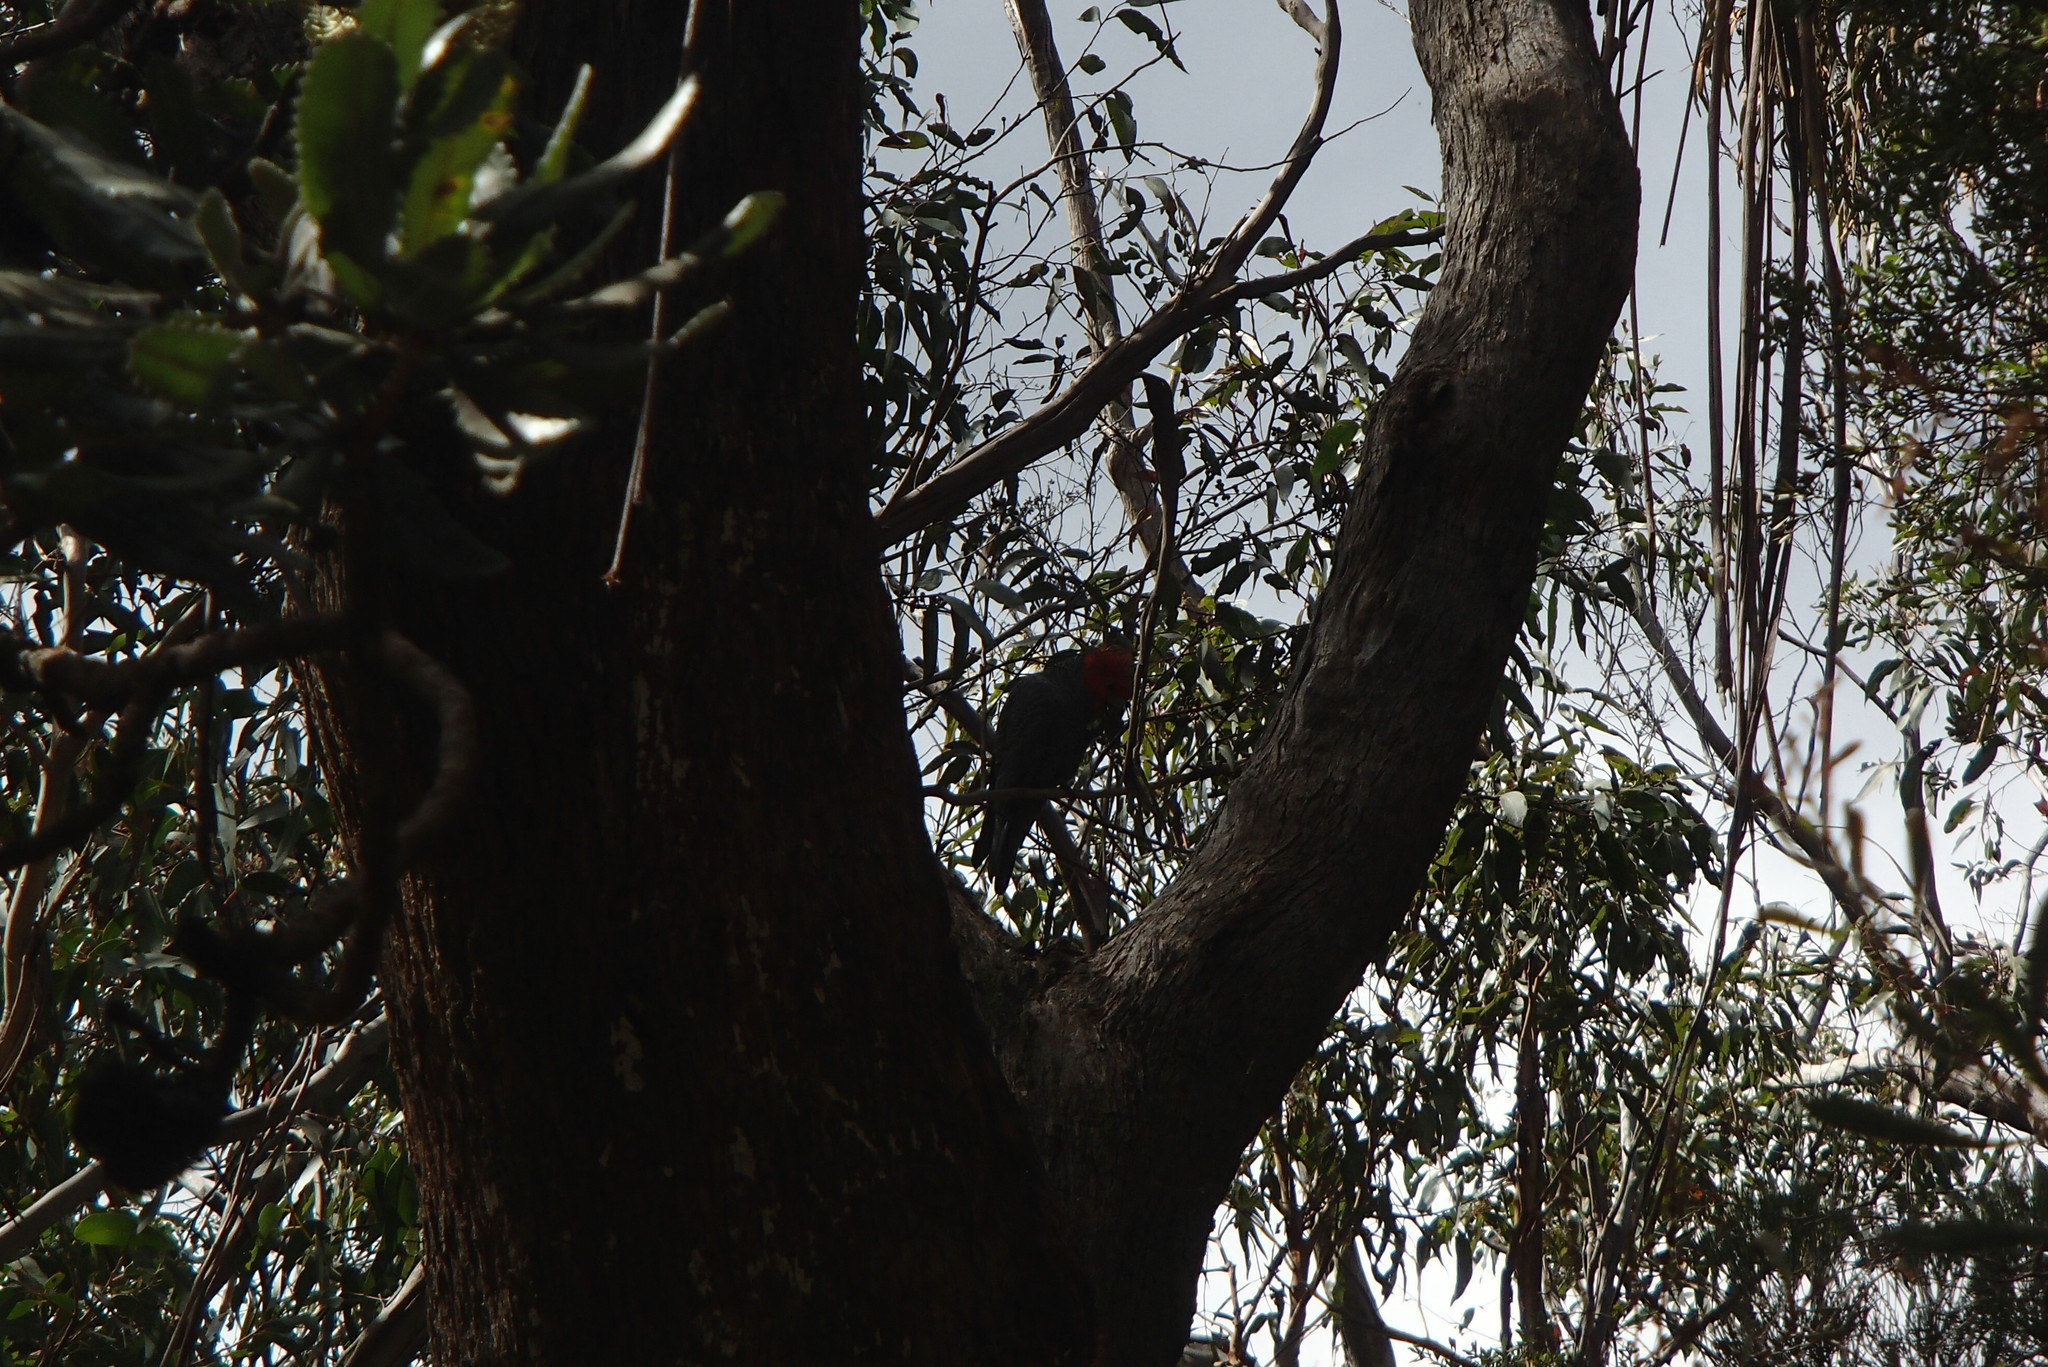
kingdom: Animalia
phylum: Chordata
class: Aves
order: Psittaciformes
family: Psittacidae
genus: Callocephalon
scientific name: Callocephalon fimbriatum
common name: Gang-gang cockatoo
